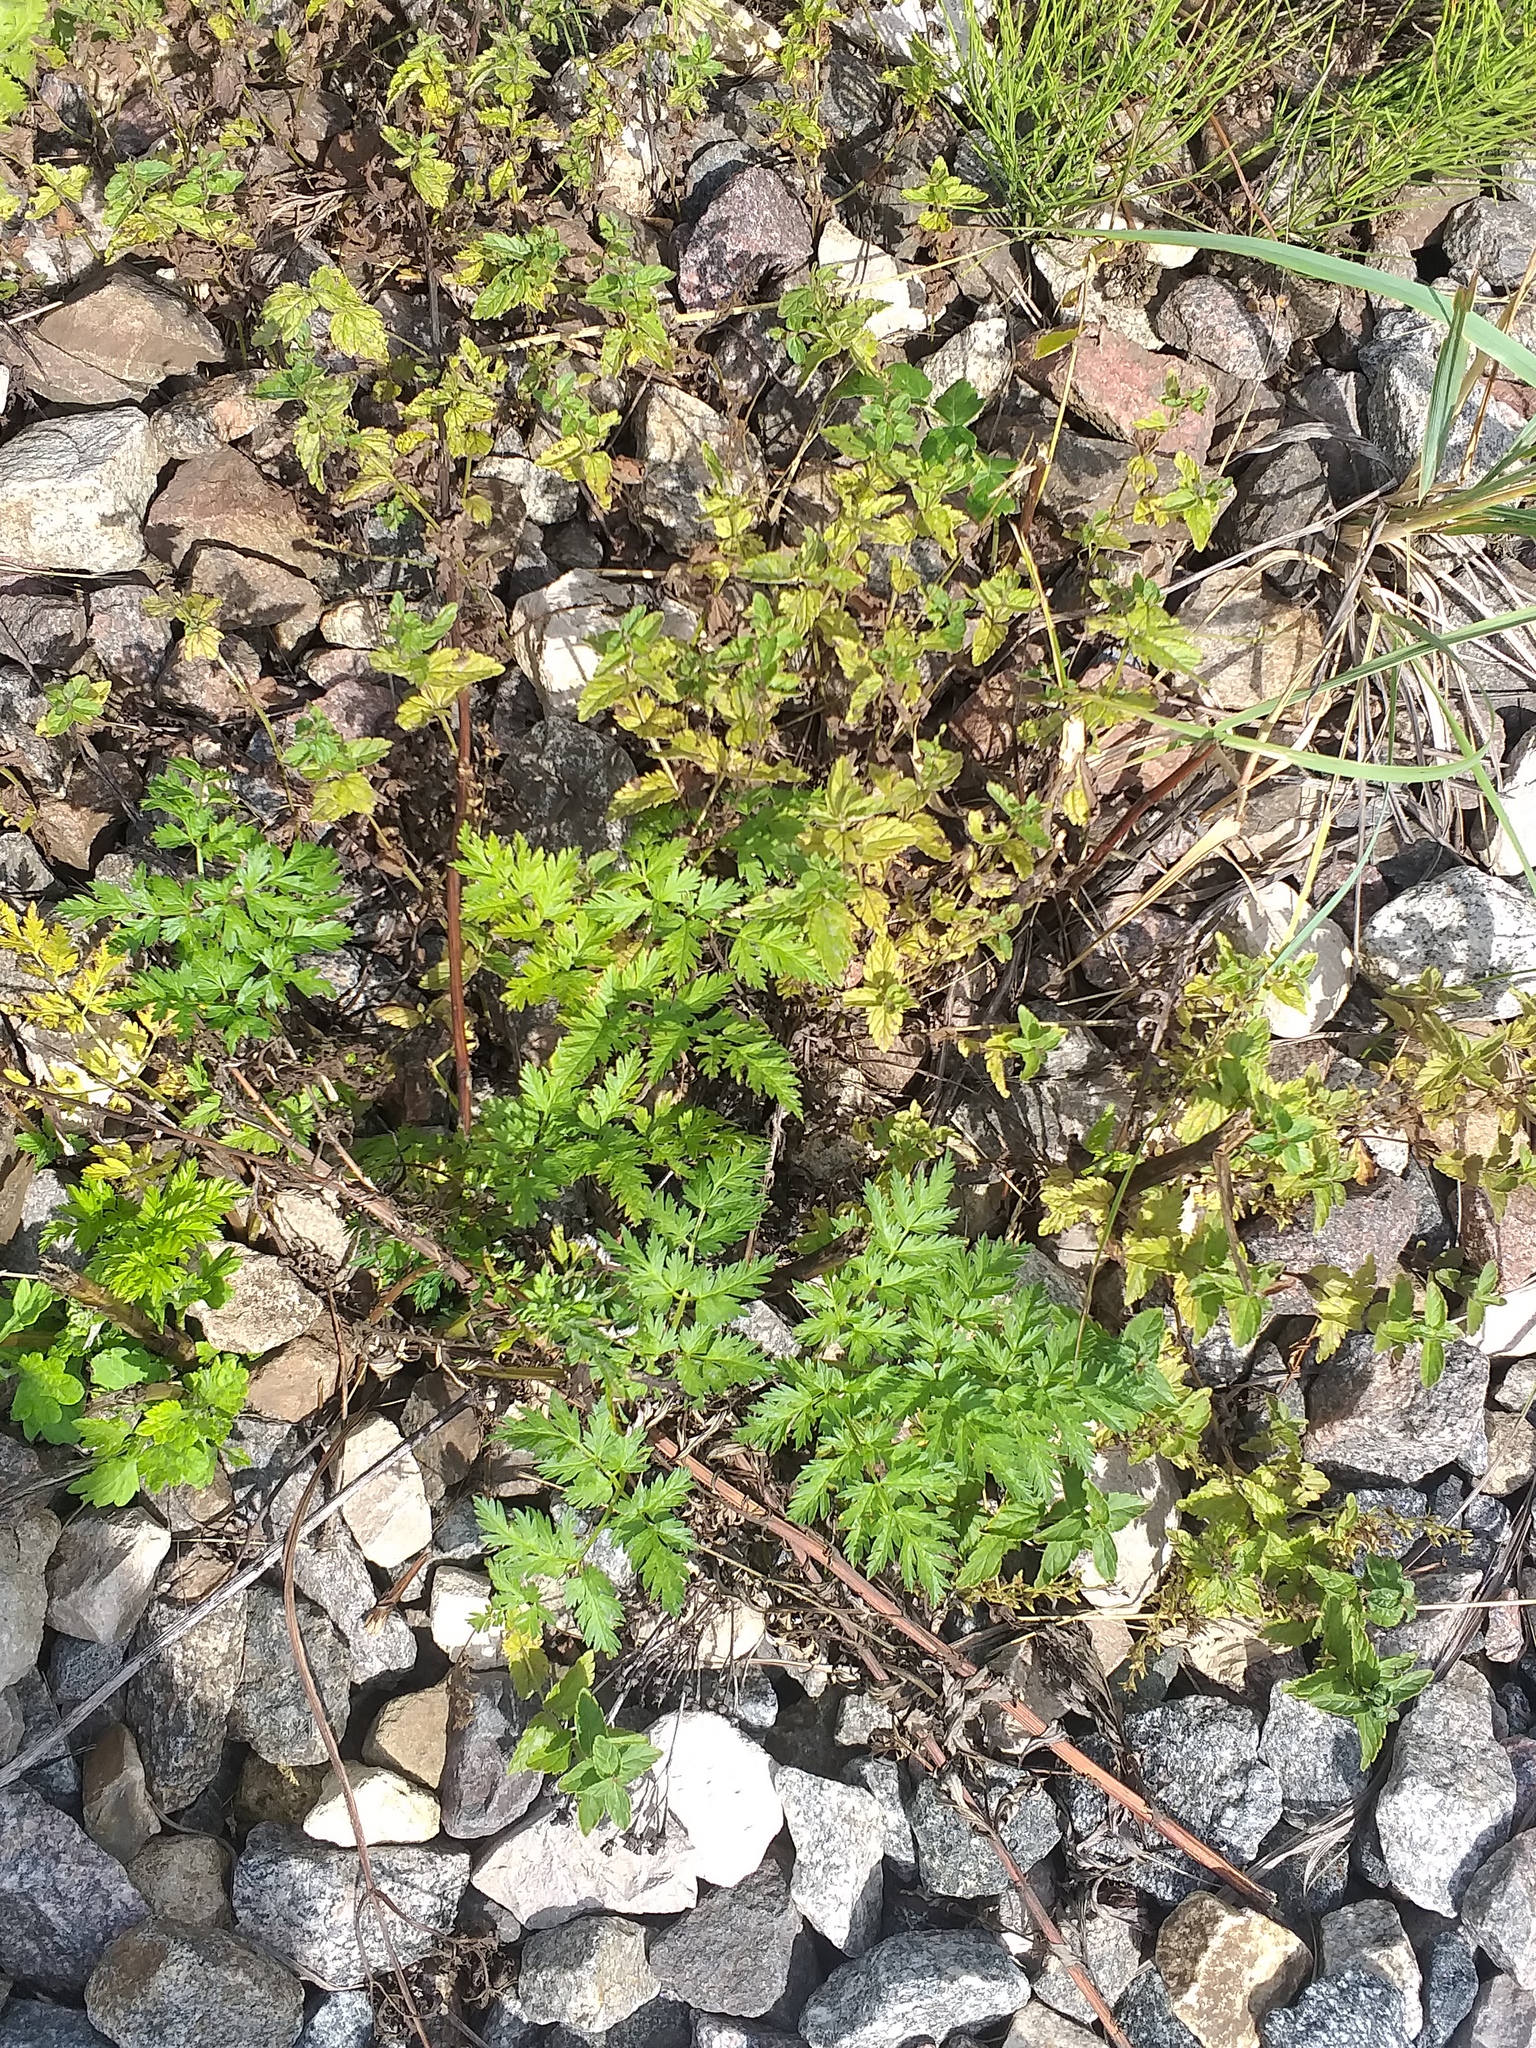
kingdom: Plantae
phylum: Tracheophyta
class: Magnoliopsida
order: Apiales
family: Apiaceae
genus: Anthriscus
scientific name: Anthriscus sylvestris
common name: Cow parsley
